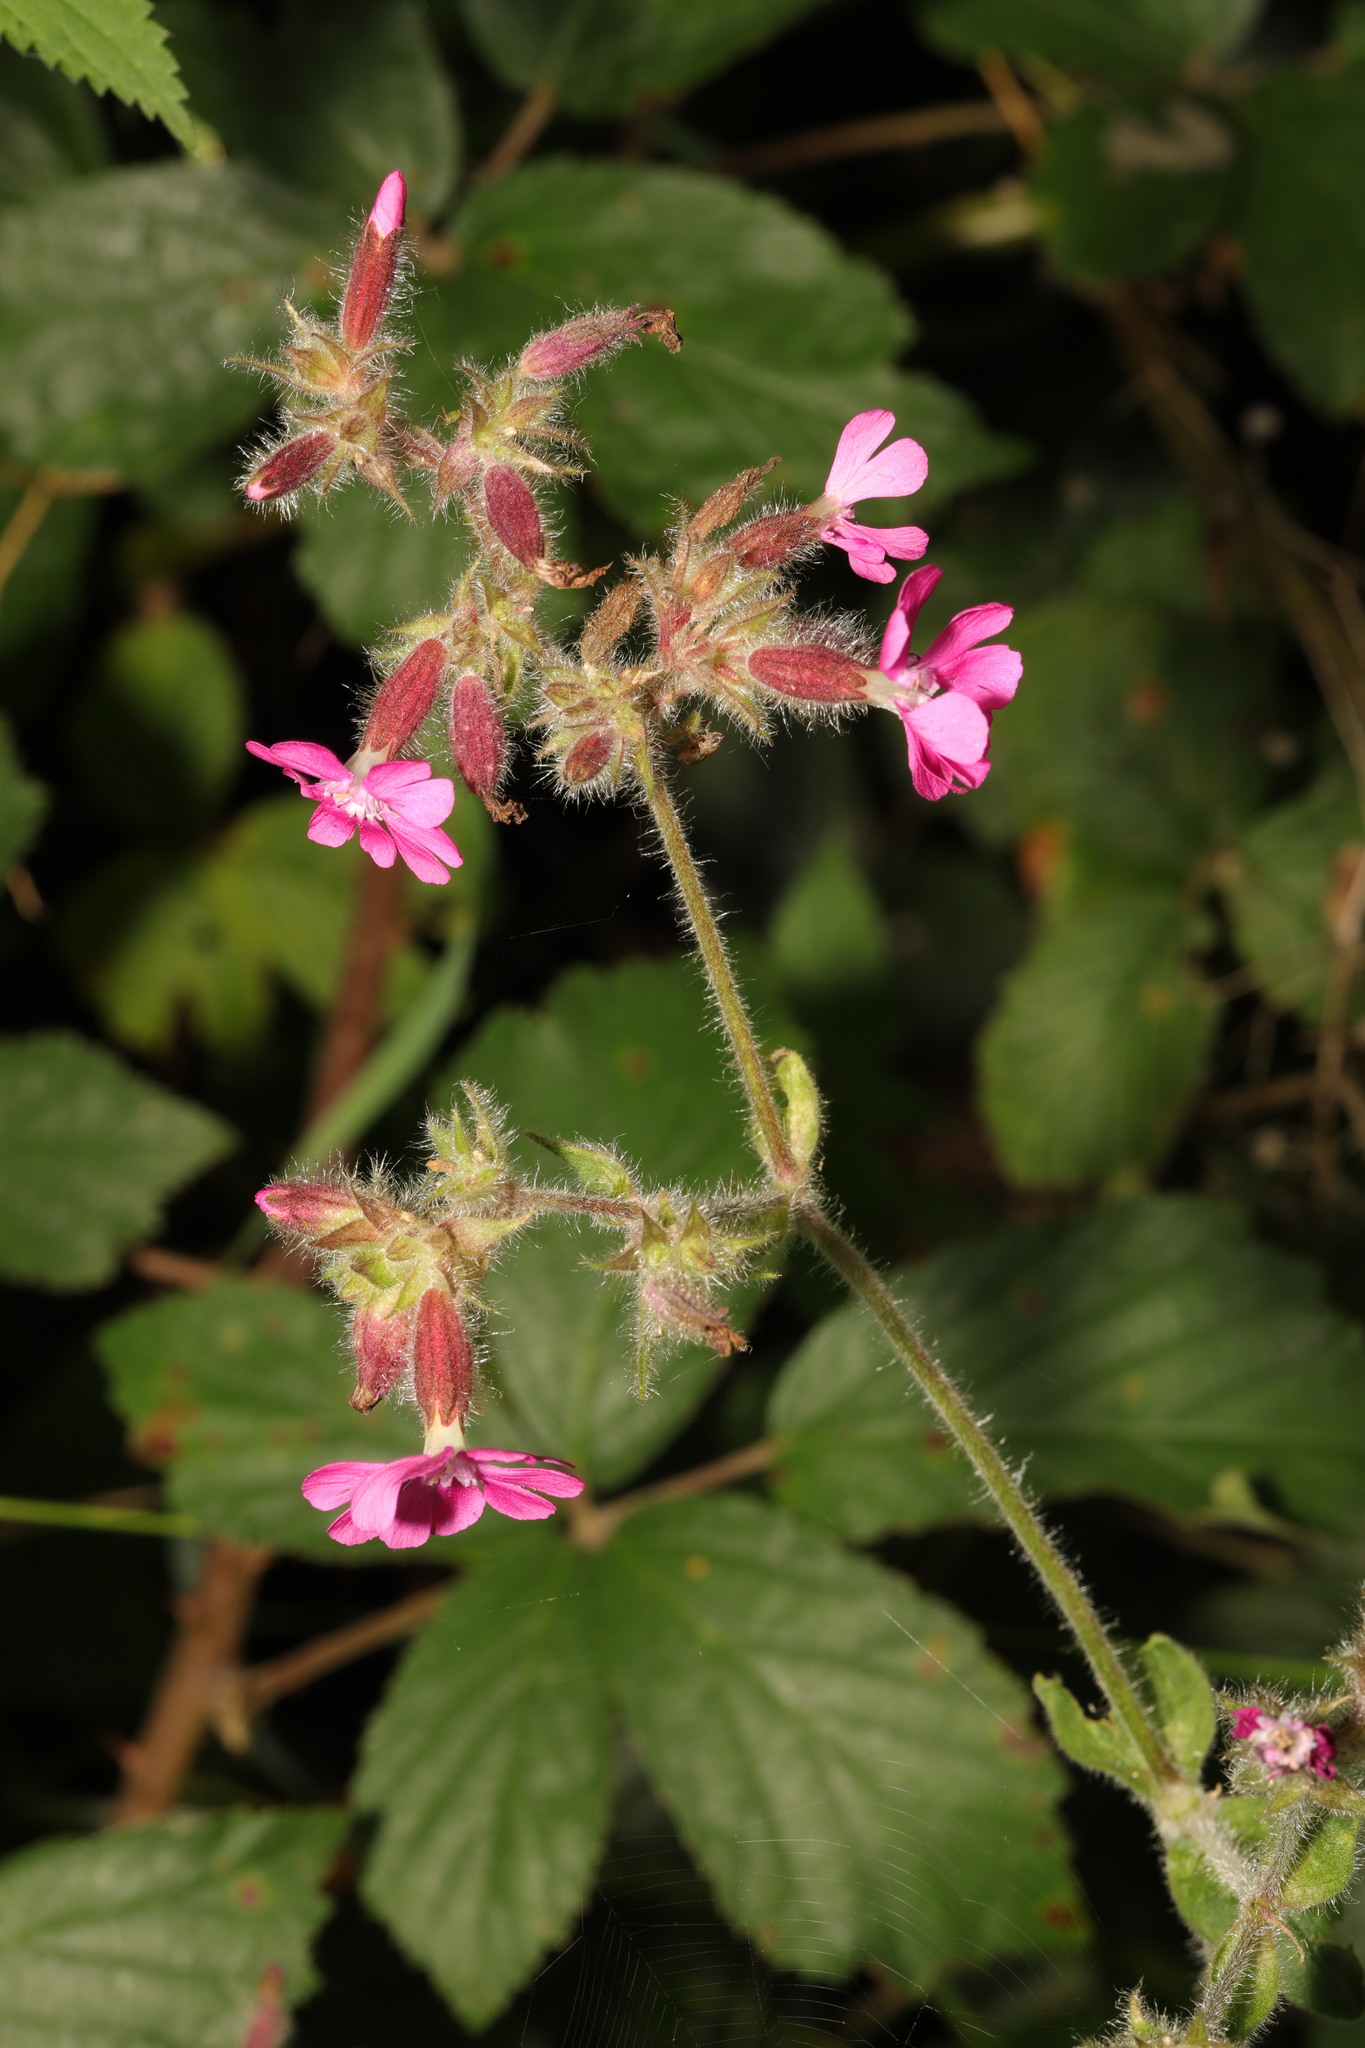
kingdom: Plantae
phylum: Tracheophyta
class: Magnoliopsida
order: Caryophyllales
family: Caryophyllaceae
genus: Silene
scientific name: Silene dioica
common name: Red campion
